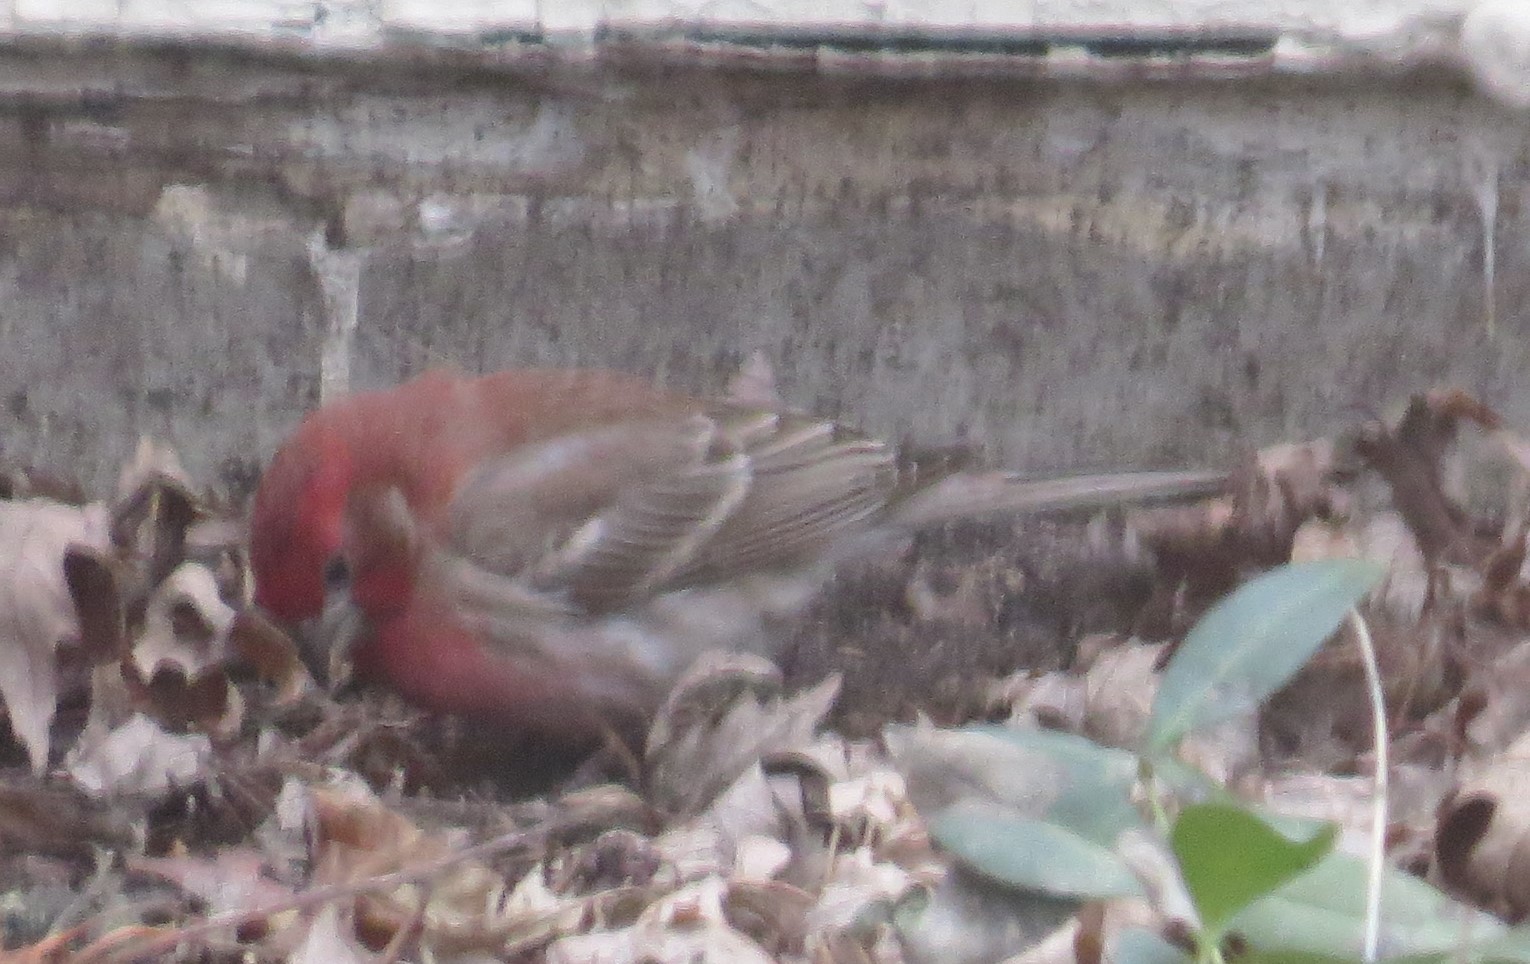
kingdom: Animalia
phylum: Chordata
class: Aves
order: Passeriformes
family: Fringillidae
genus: Haemorhous
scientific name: Haemorhous mexicanus
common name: House finch
